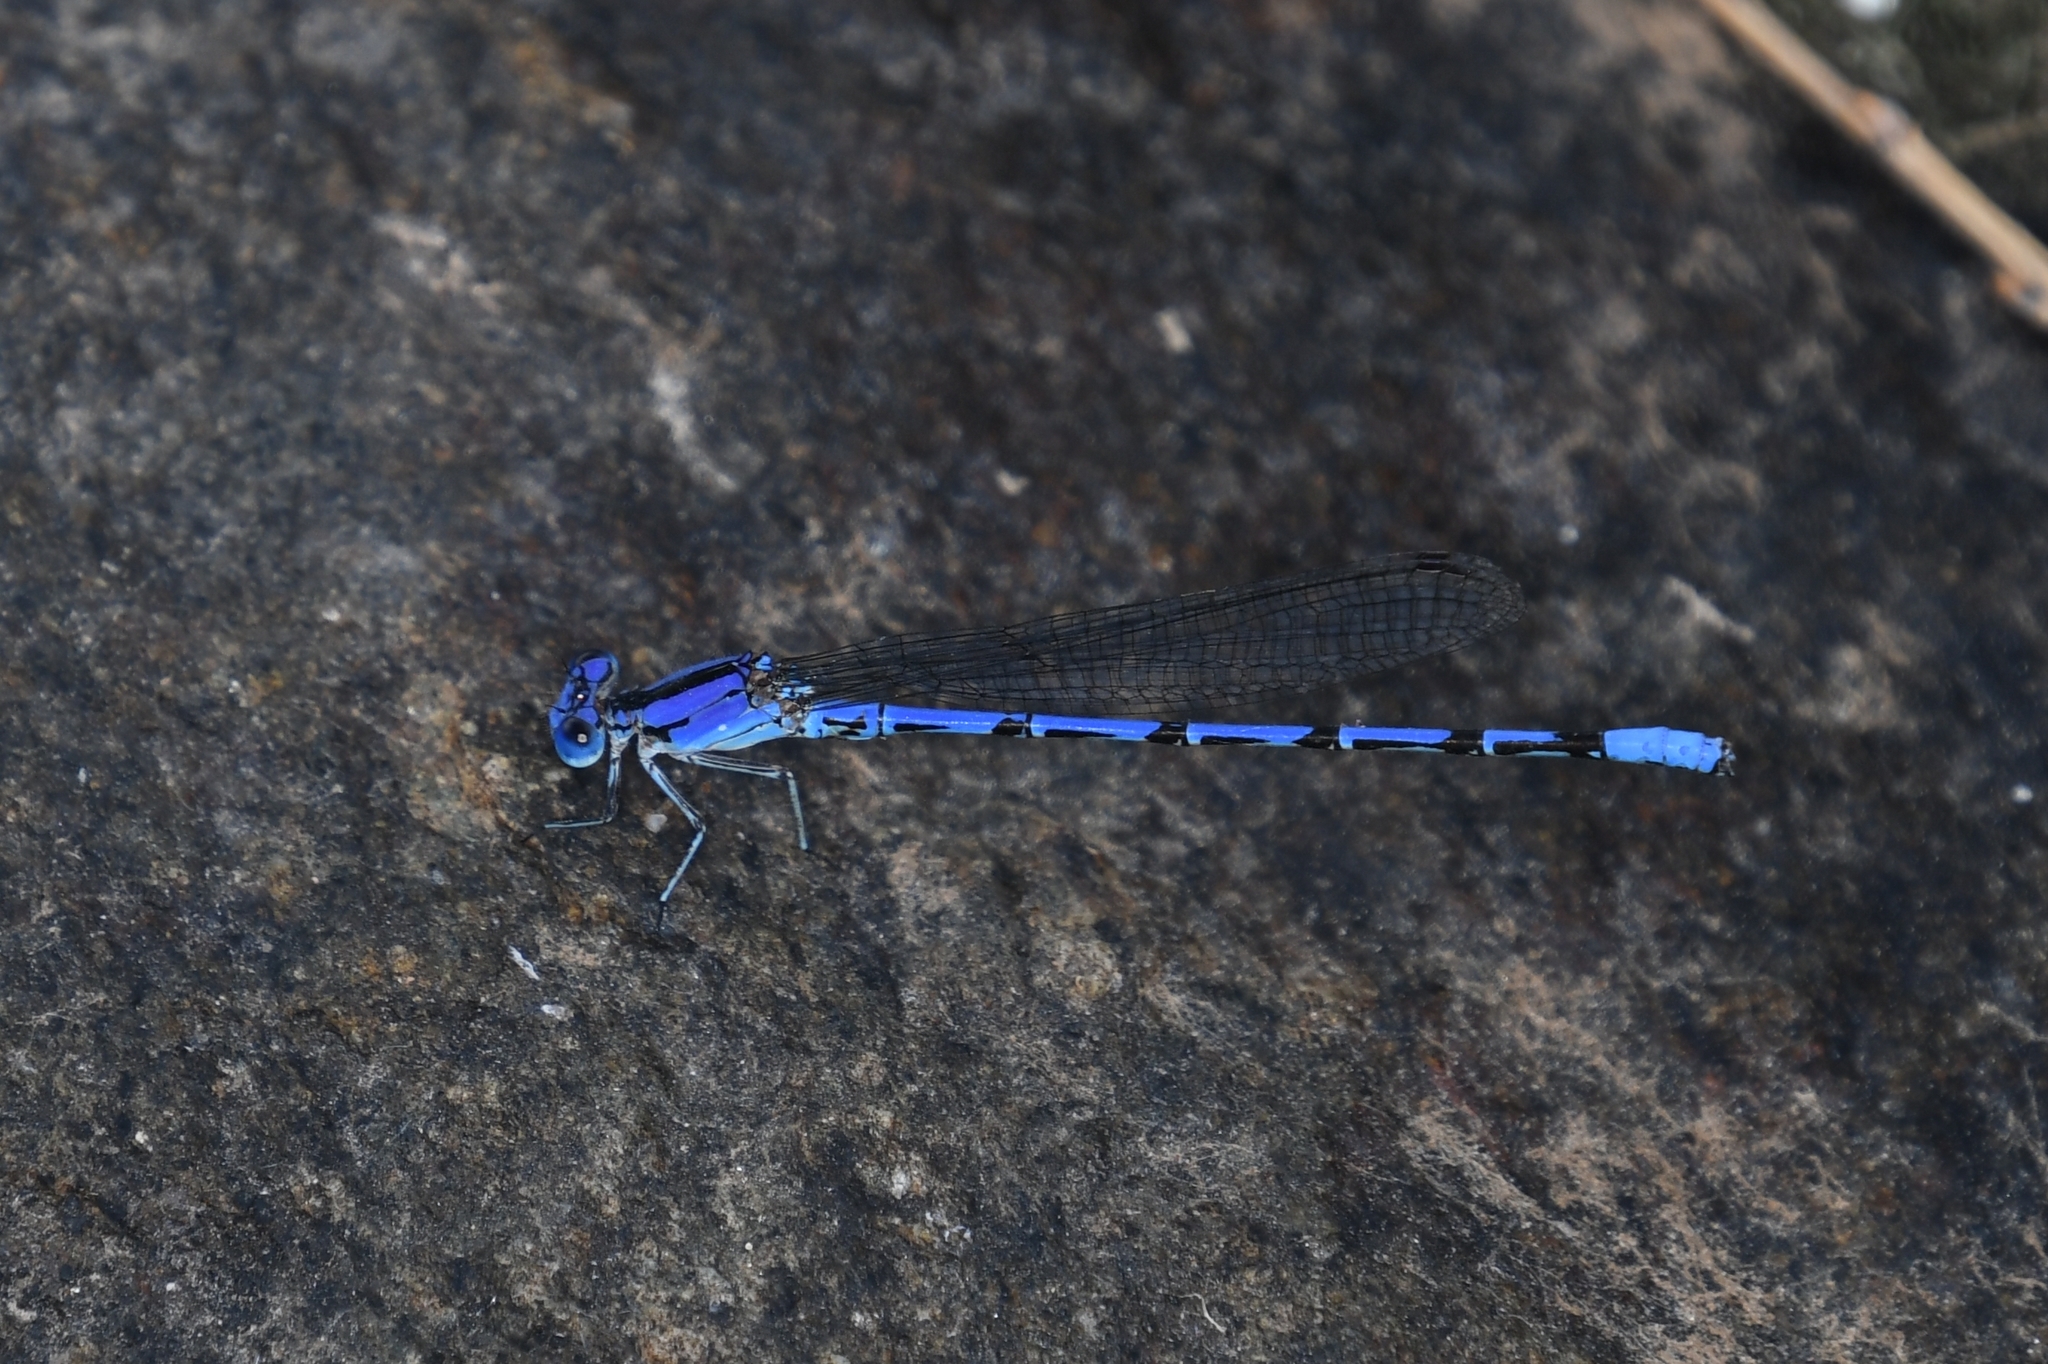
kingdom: Animalia
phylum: Arthropoda
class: Insecta
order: Odonata
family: Coenagrionidae
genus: Argia
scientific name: Argia extranea
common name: Spine-tipped dancer
